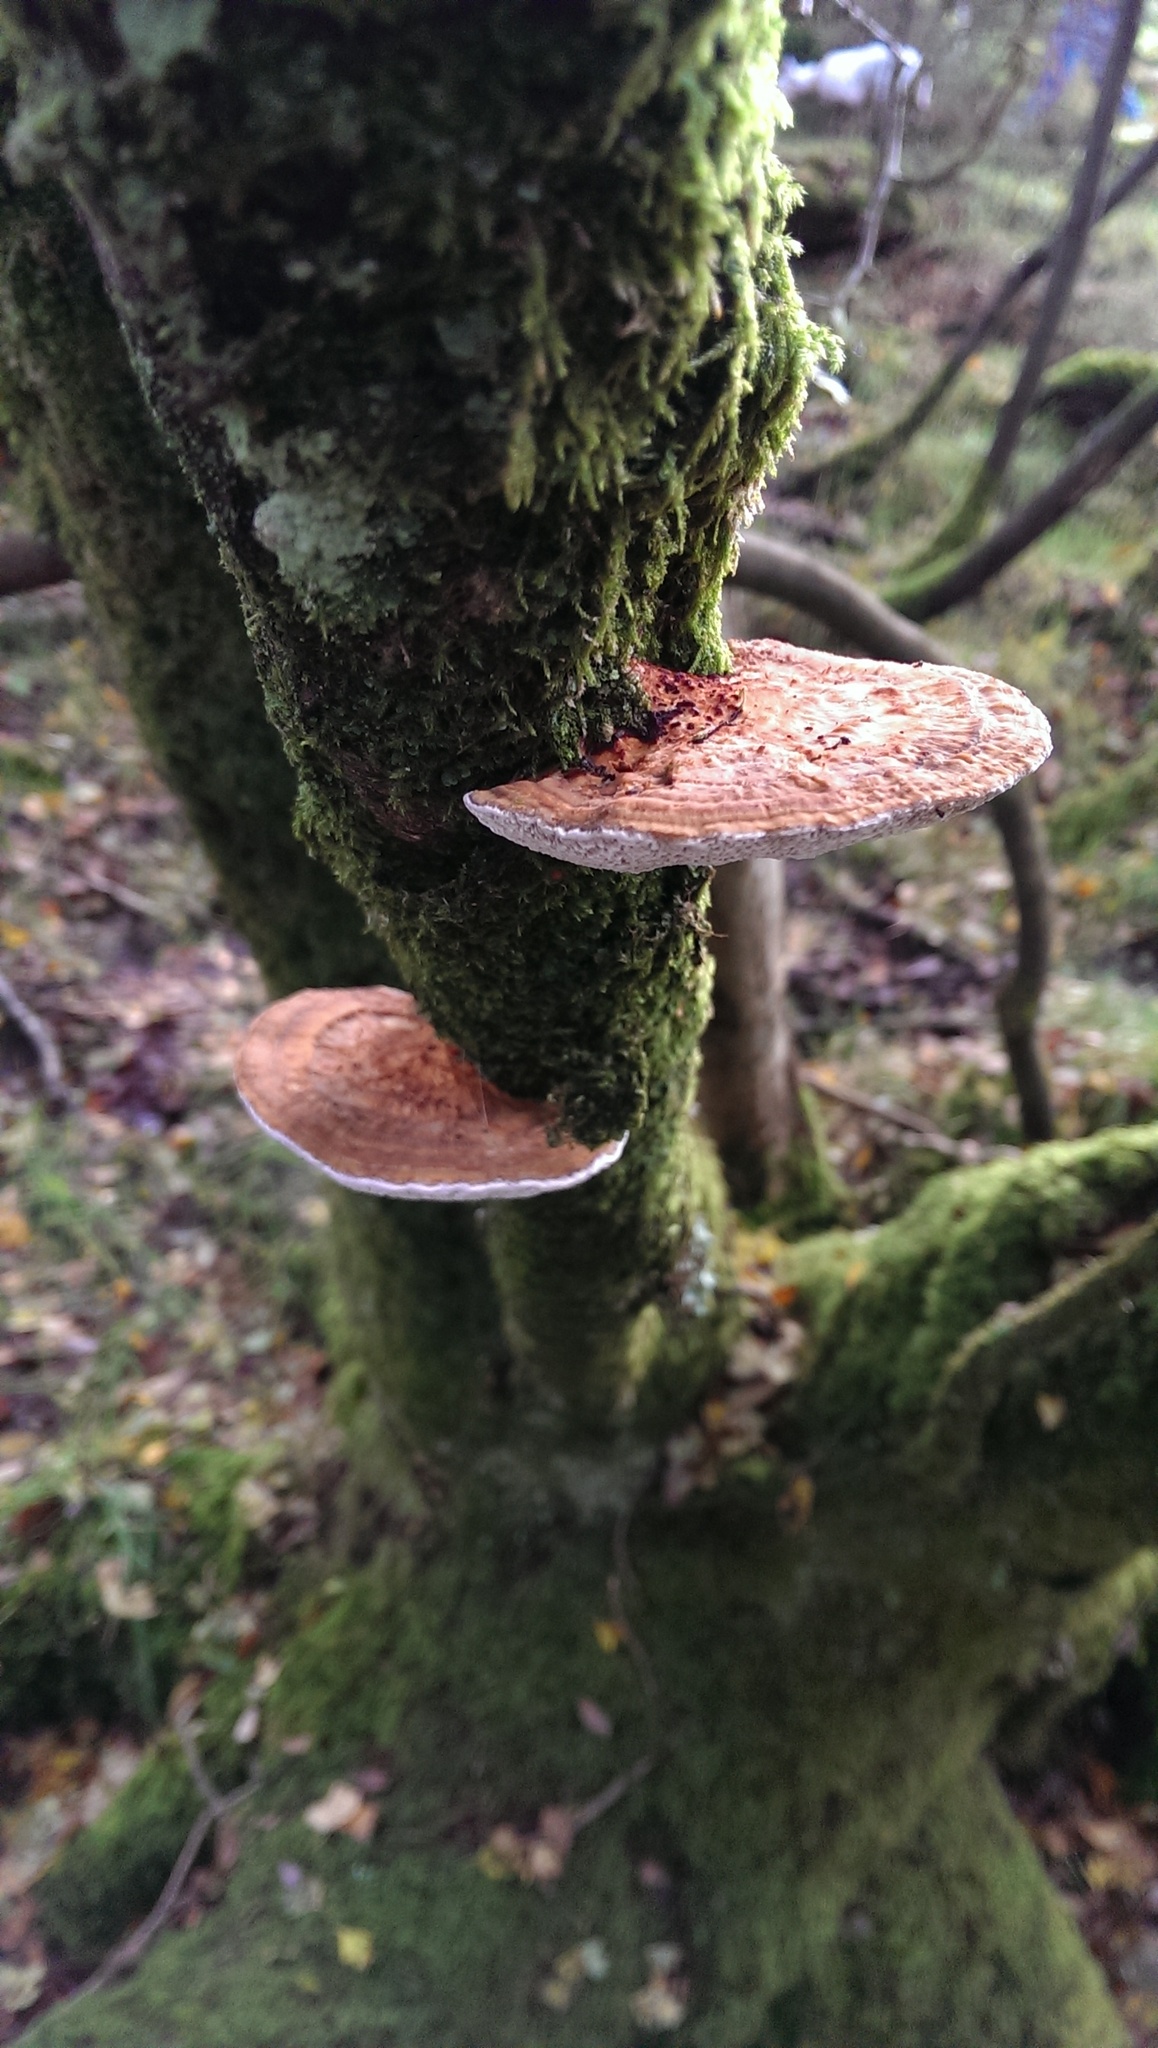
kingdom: Fungi
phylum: Basidiomycota
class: Agaricomycetes
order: Polyporales
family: Polyporaceae
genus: Daedaleopsis
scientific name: Daedaleopsis confragosa
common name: Blushing bracket
